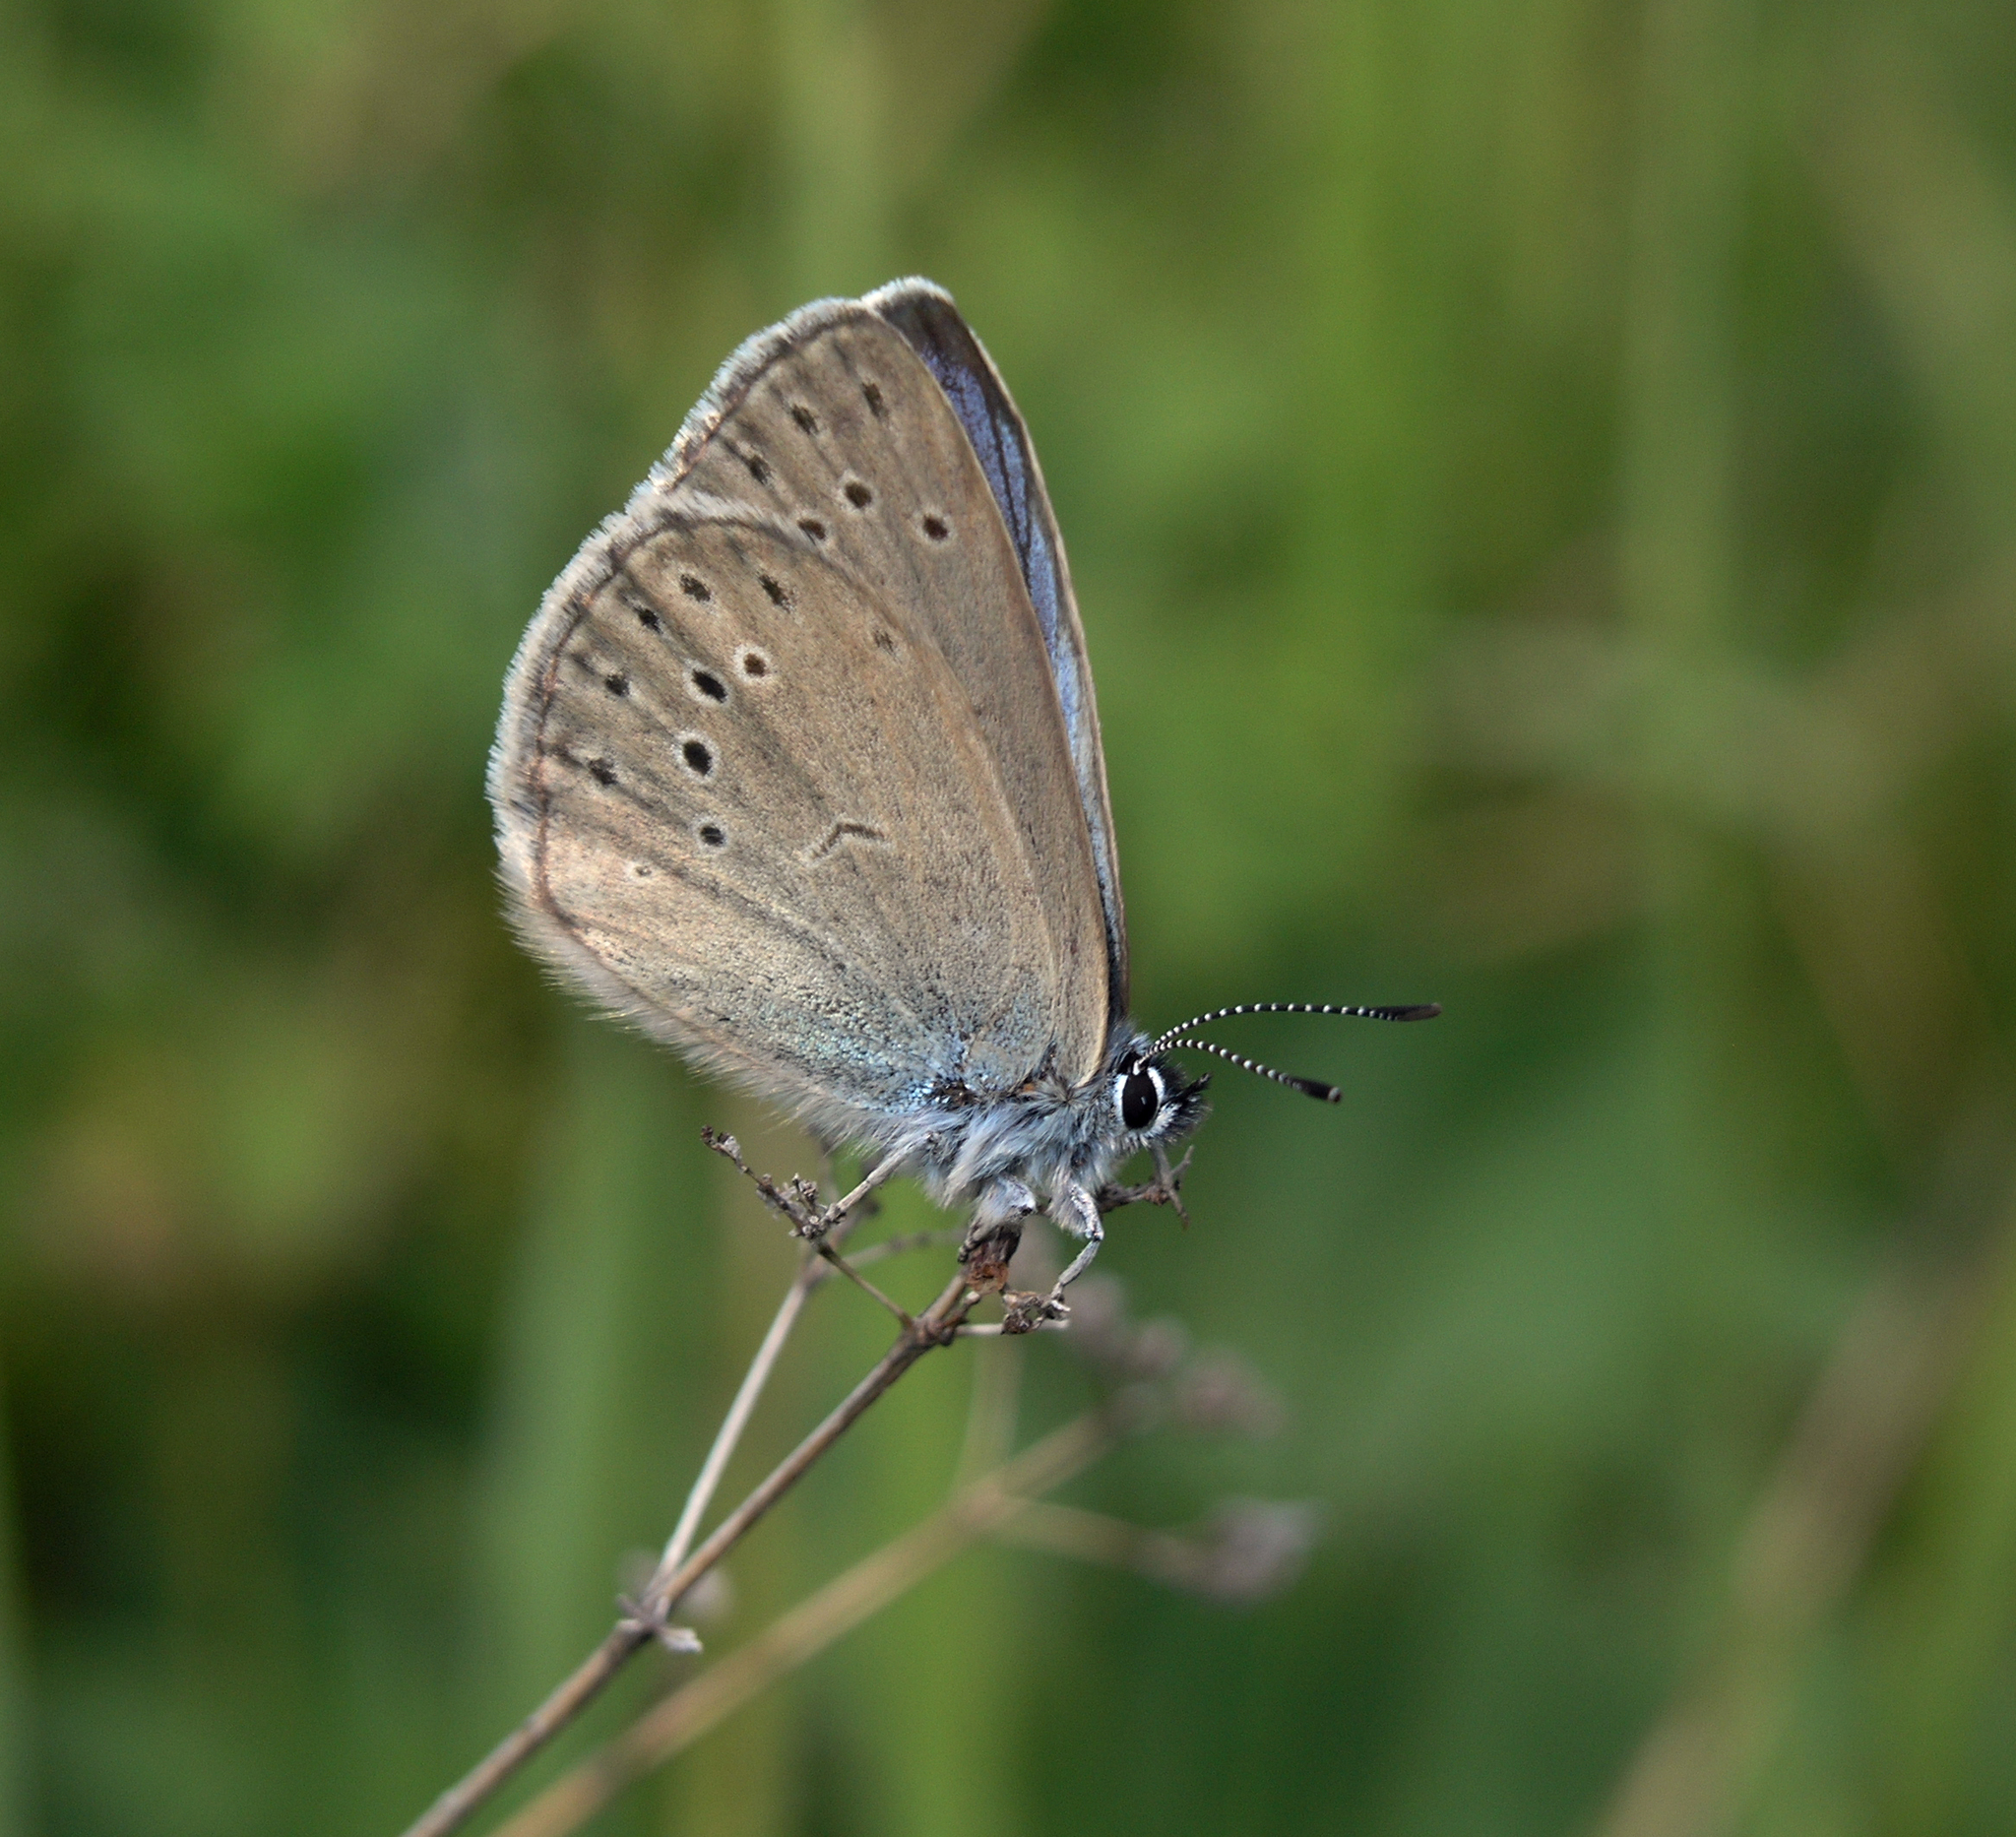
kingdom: Animalia
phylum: Arthropoda
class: Insecta
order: Lepidoptera
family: Lycaenidae
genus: Maculinea
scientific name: Maculinea alcon
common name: Alcon blue
